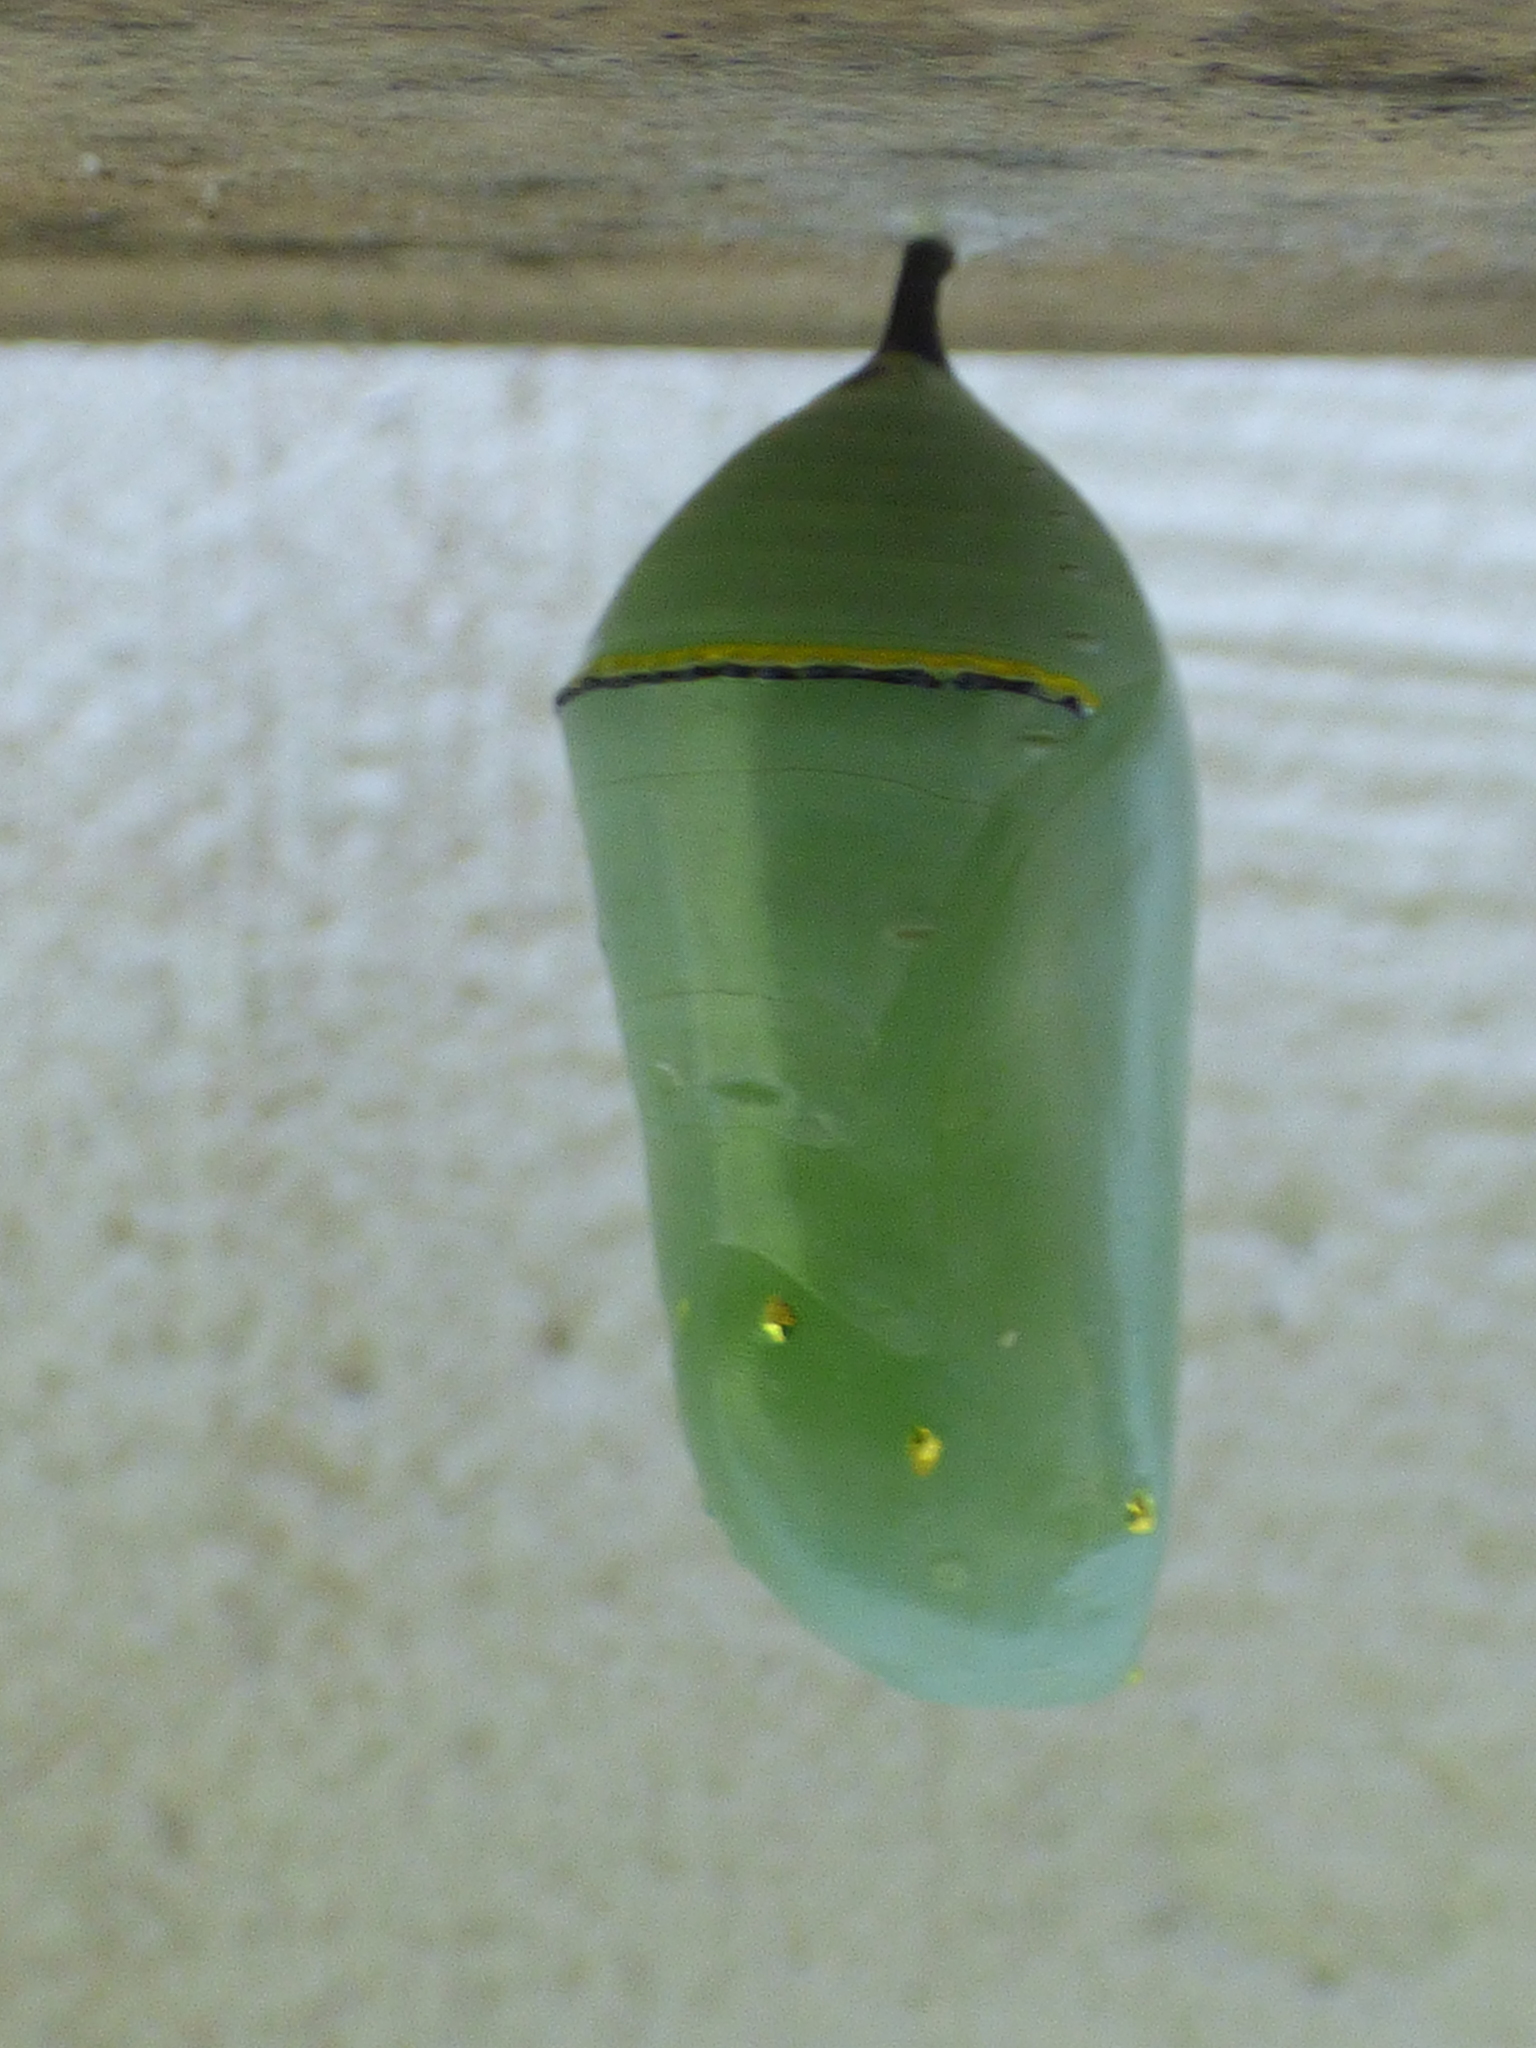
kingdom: Animalia
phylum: Arthropoda
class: Insecta
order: Lepidoptera
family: Nymphalidae
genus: Danaus
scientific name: Danaus plexippus
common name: Monarch
